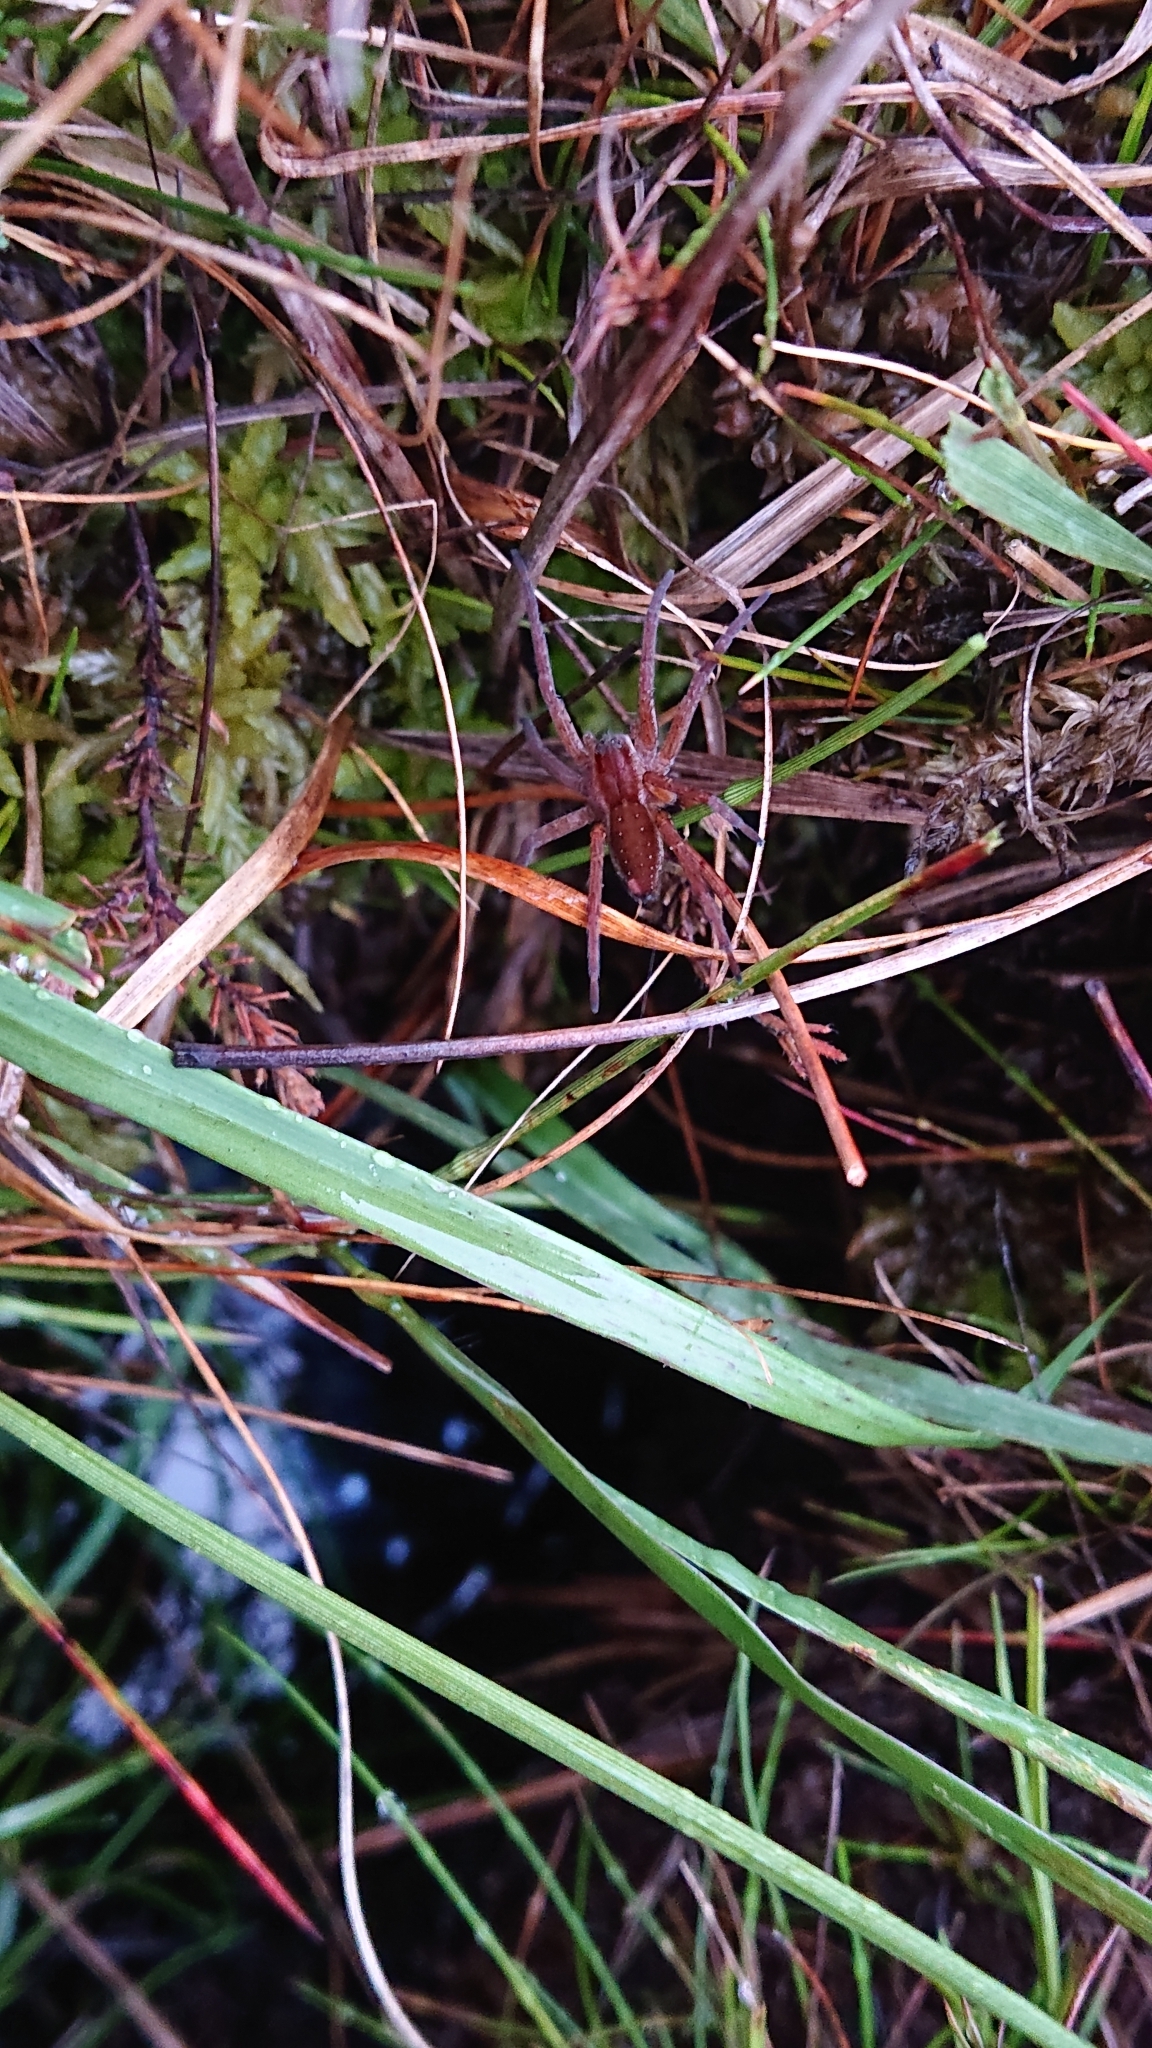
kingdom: Animalia
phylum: Arthropoda
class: Arachnida
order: Araneae
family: Pisauridae
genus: Dolomedes
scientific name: Dolomedes fimbriatus
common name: Raft spider
